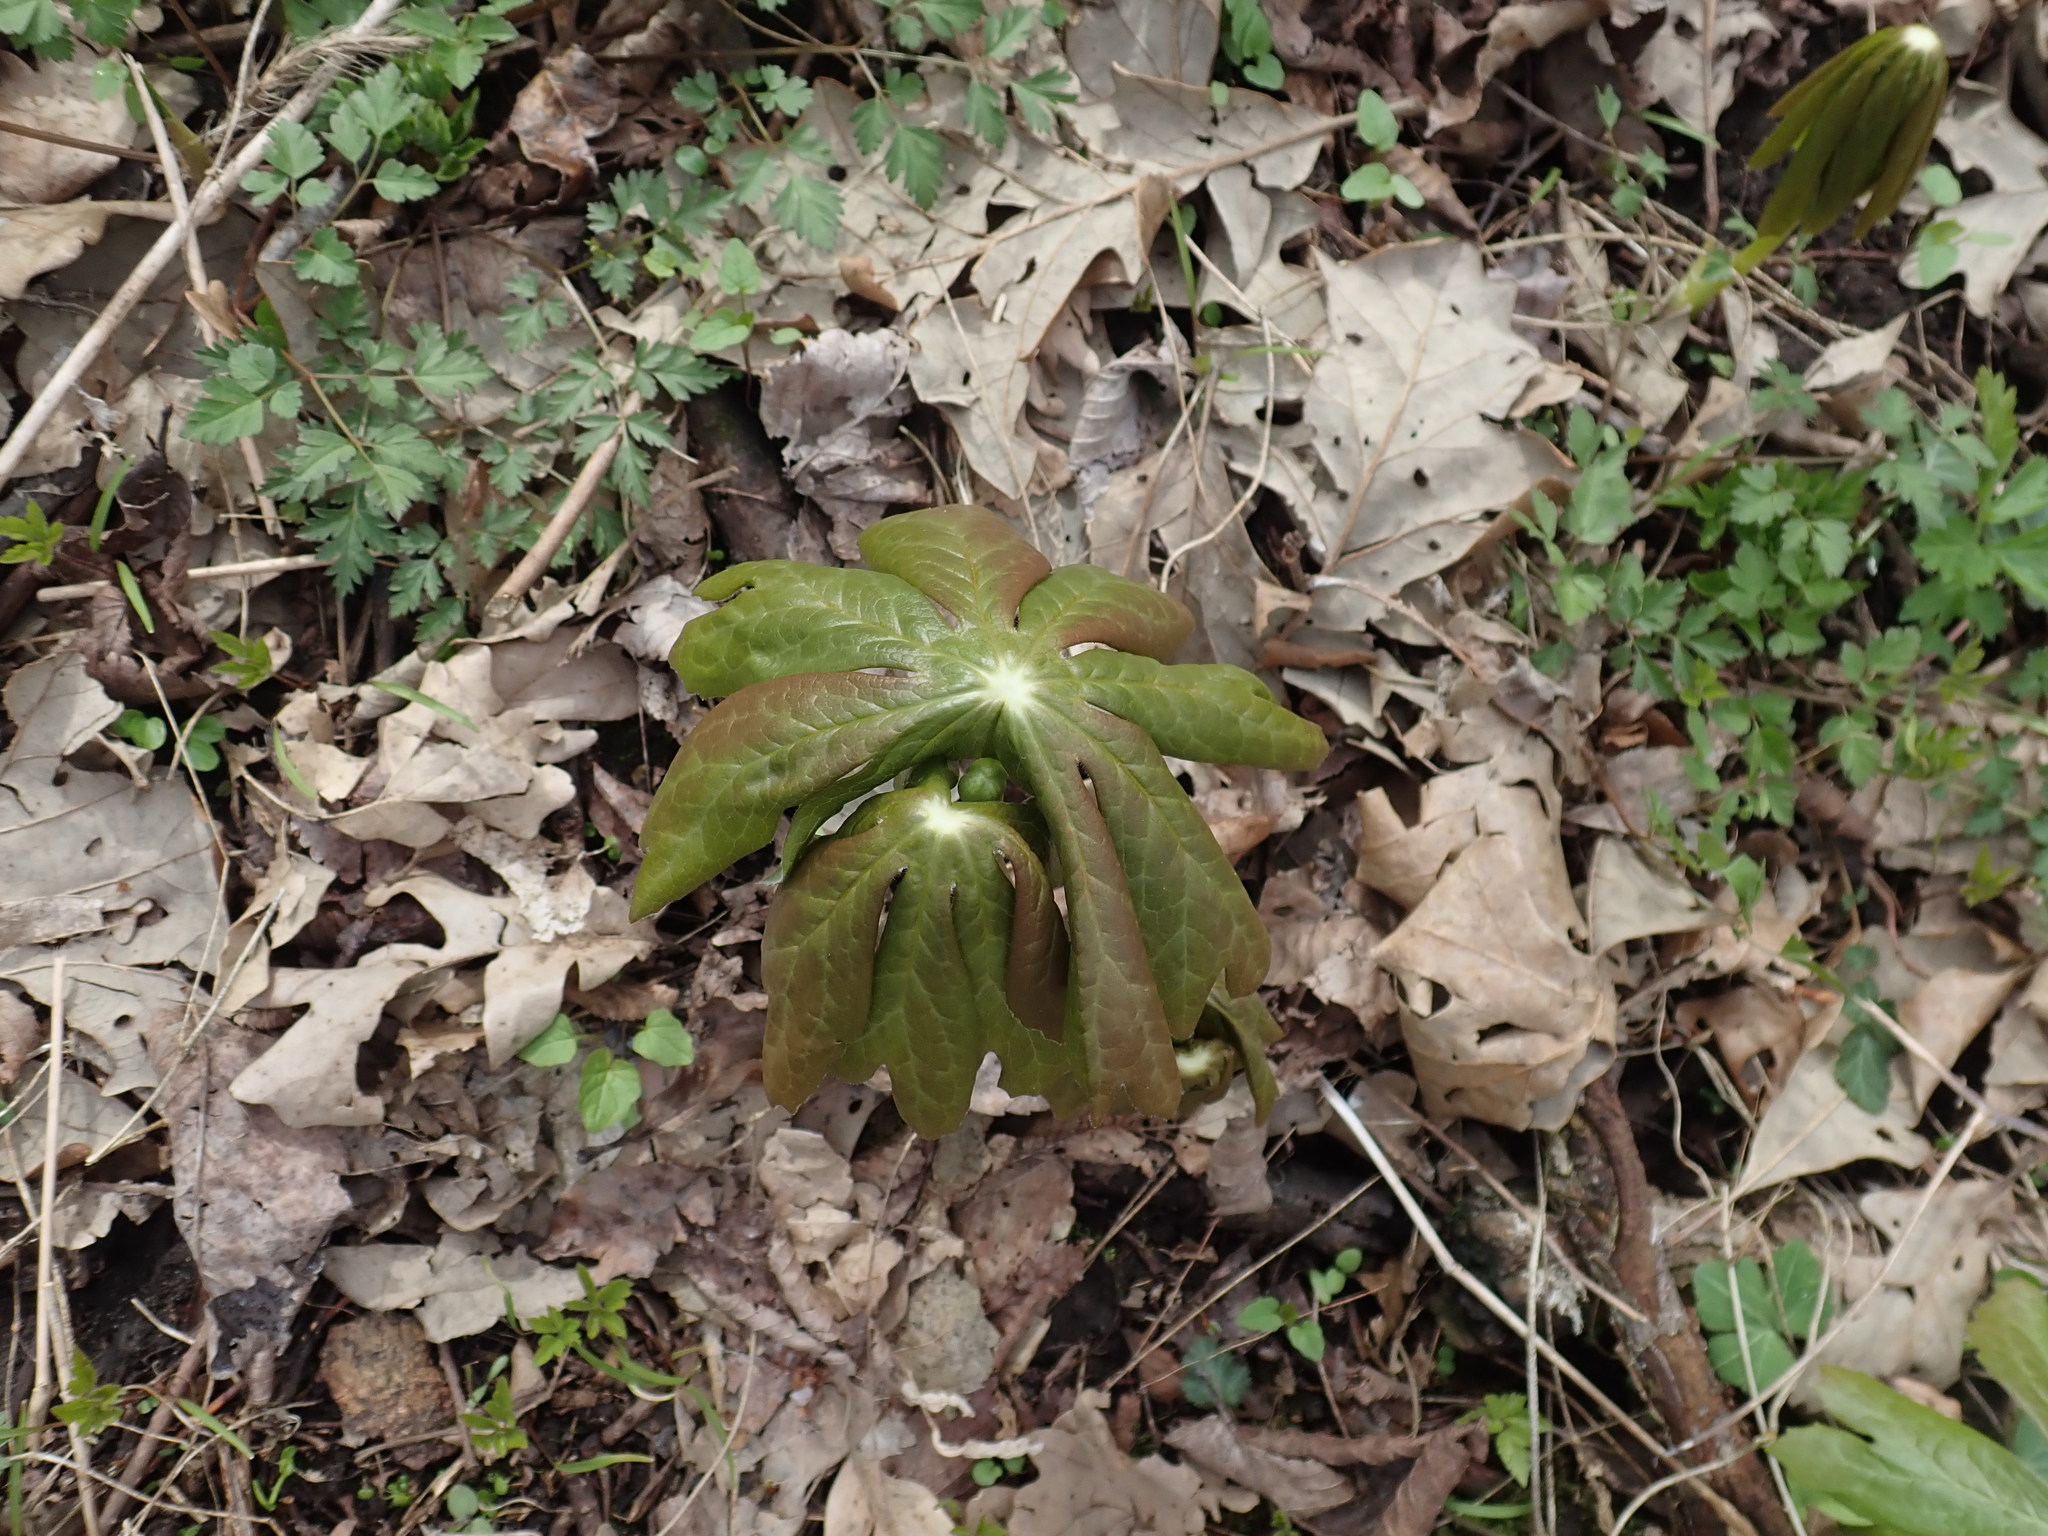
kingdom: Plantae
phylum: Tracheophyta
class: Magnoliopsida
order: Ranunculales
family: Berberidaceae
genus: Podophyllum
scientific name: Podophyllum peltatum
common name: Wild mandrake
